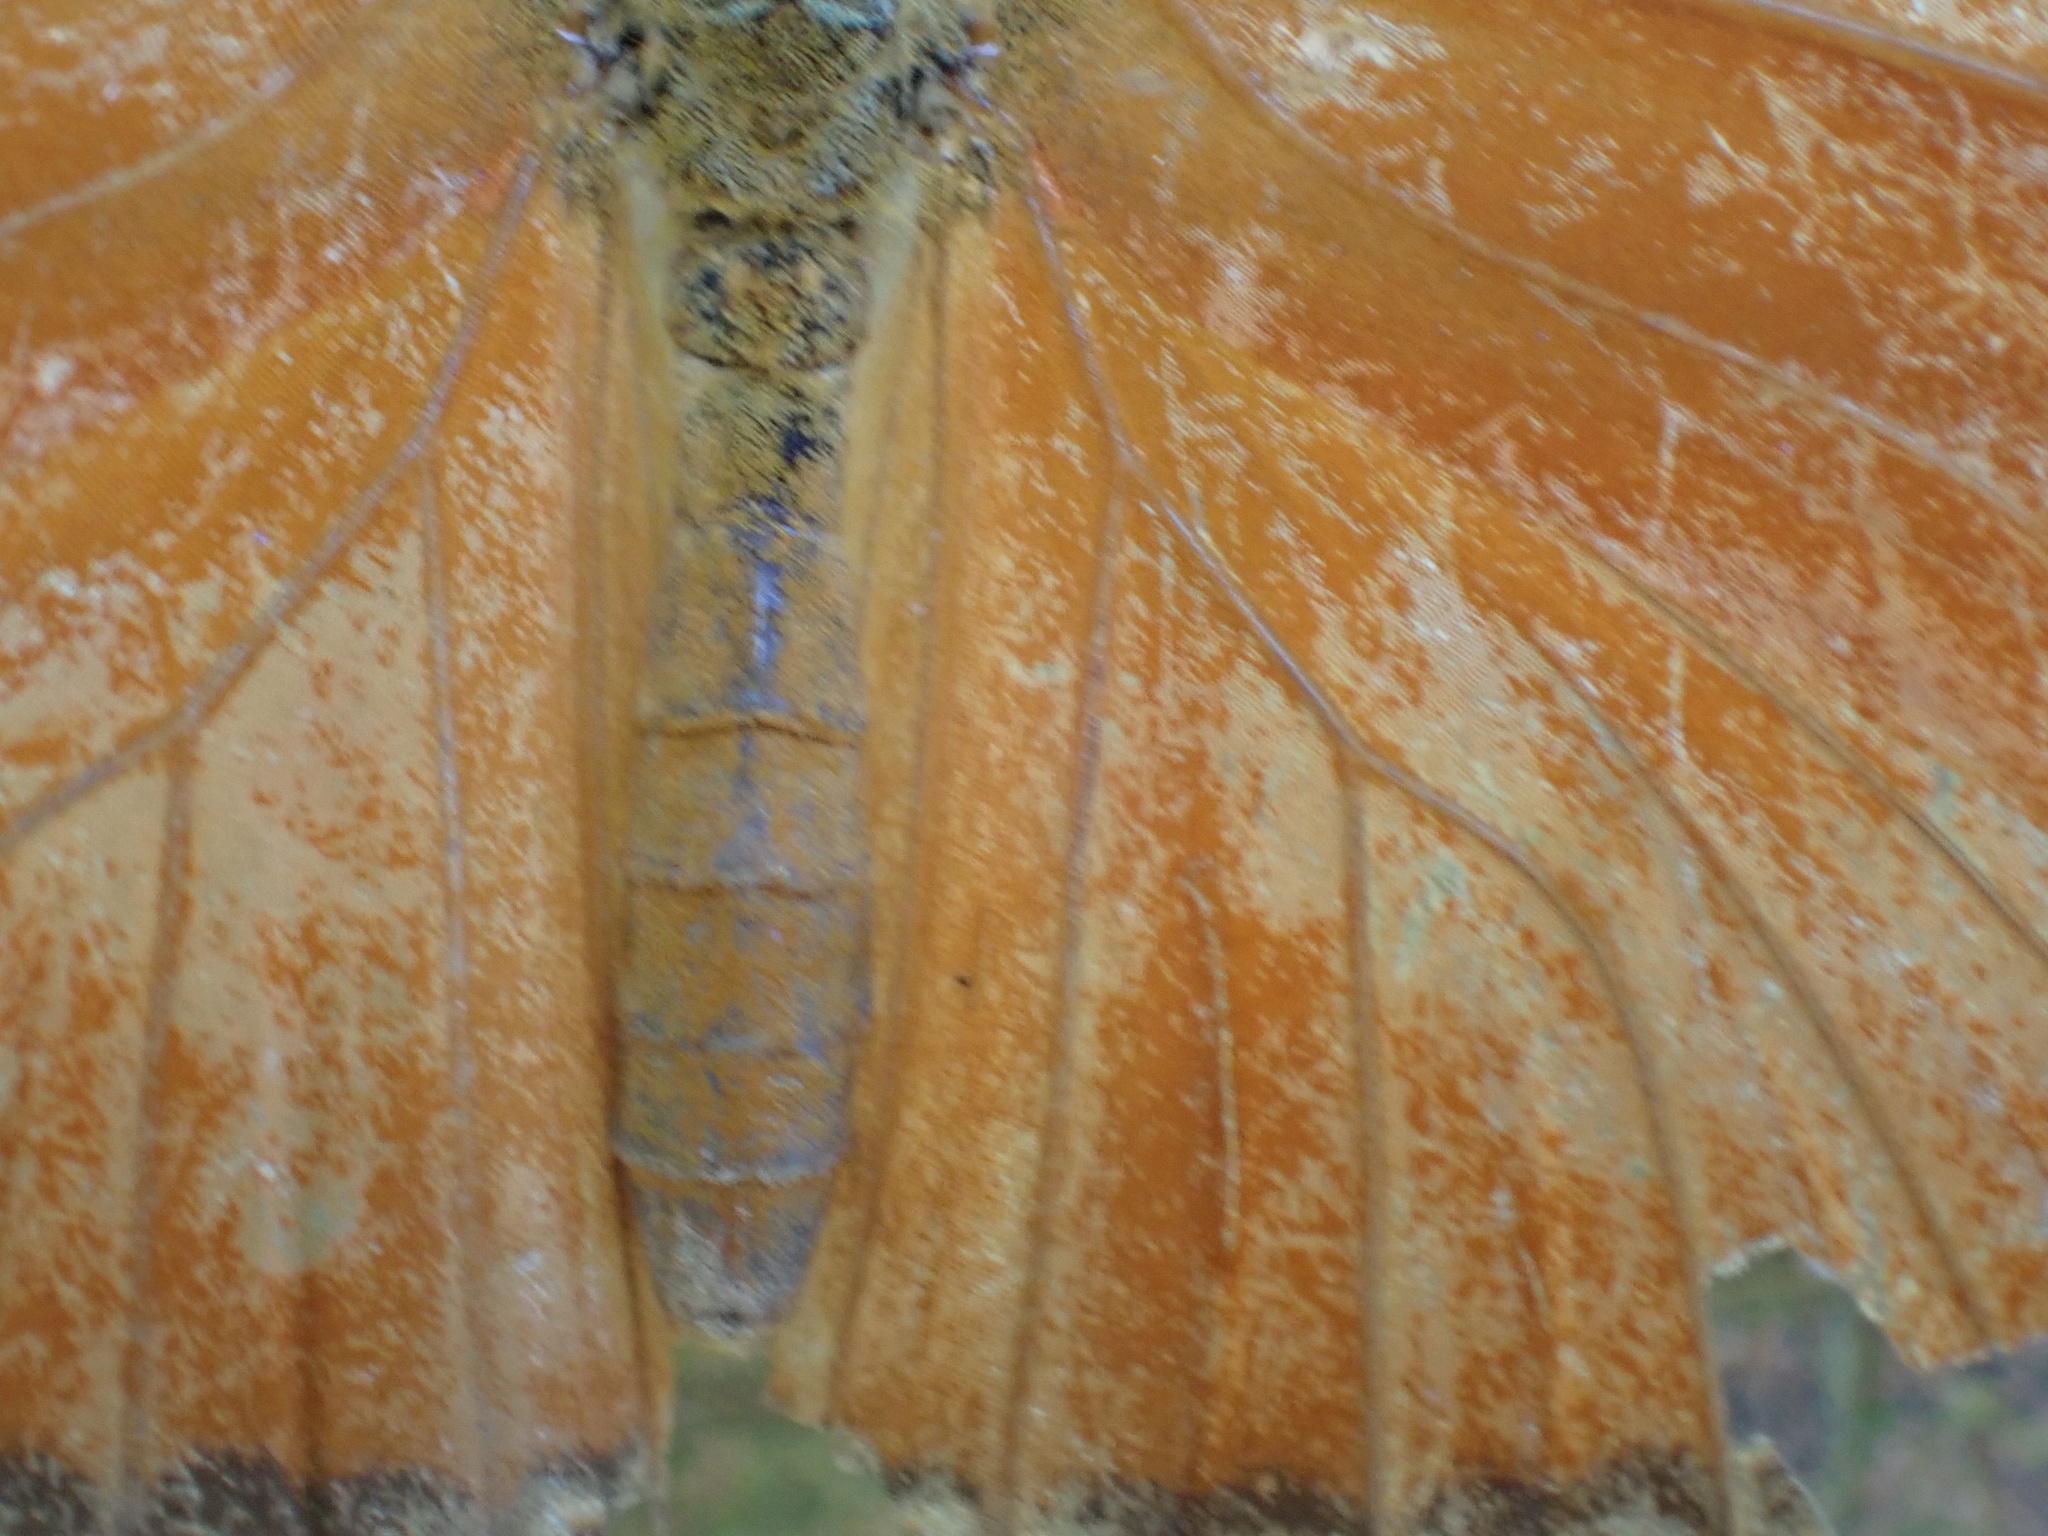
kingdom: Animalia
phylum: Arthropoda
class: Insecta
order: Lepidoptera
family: Nymphalidae
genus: Dryas
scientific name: Dryas iulia
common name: Flambeau
